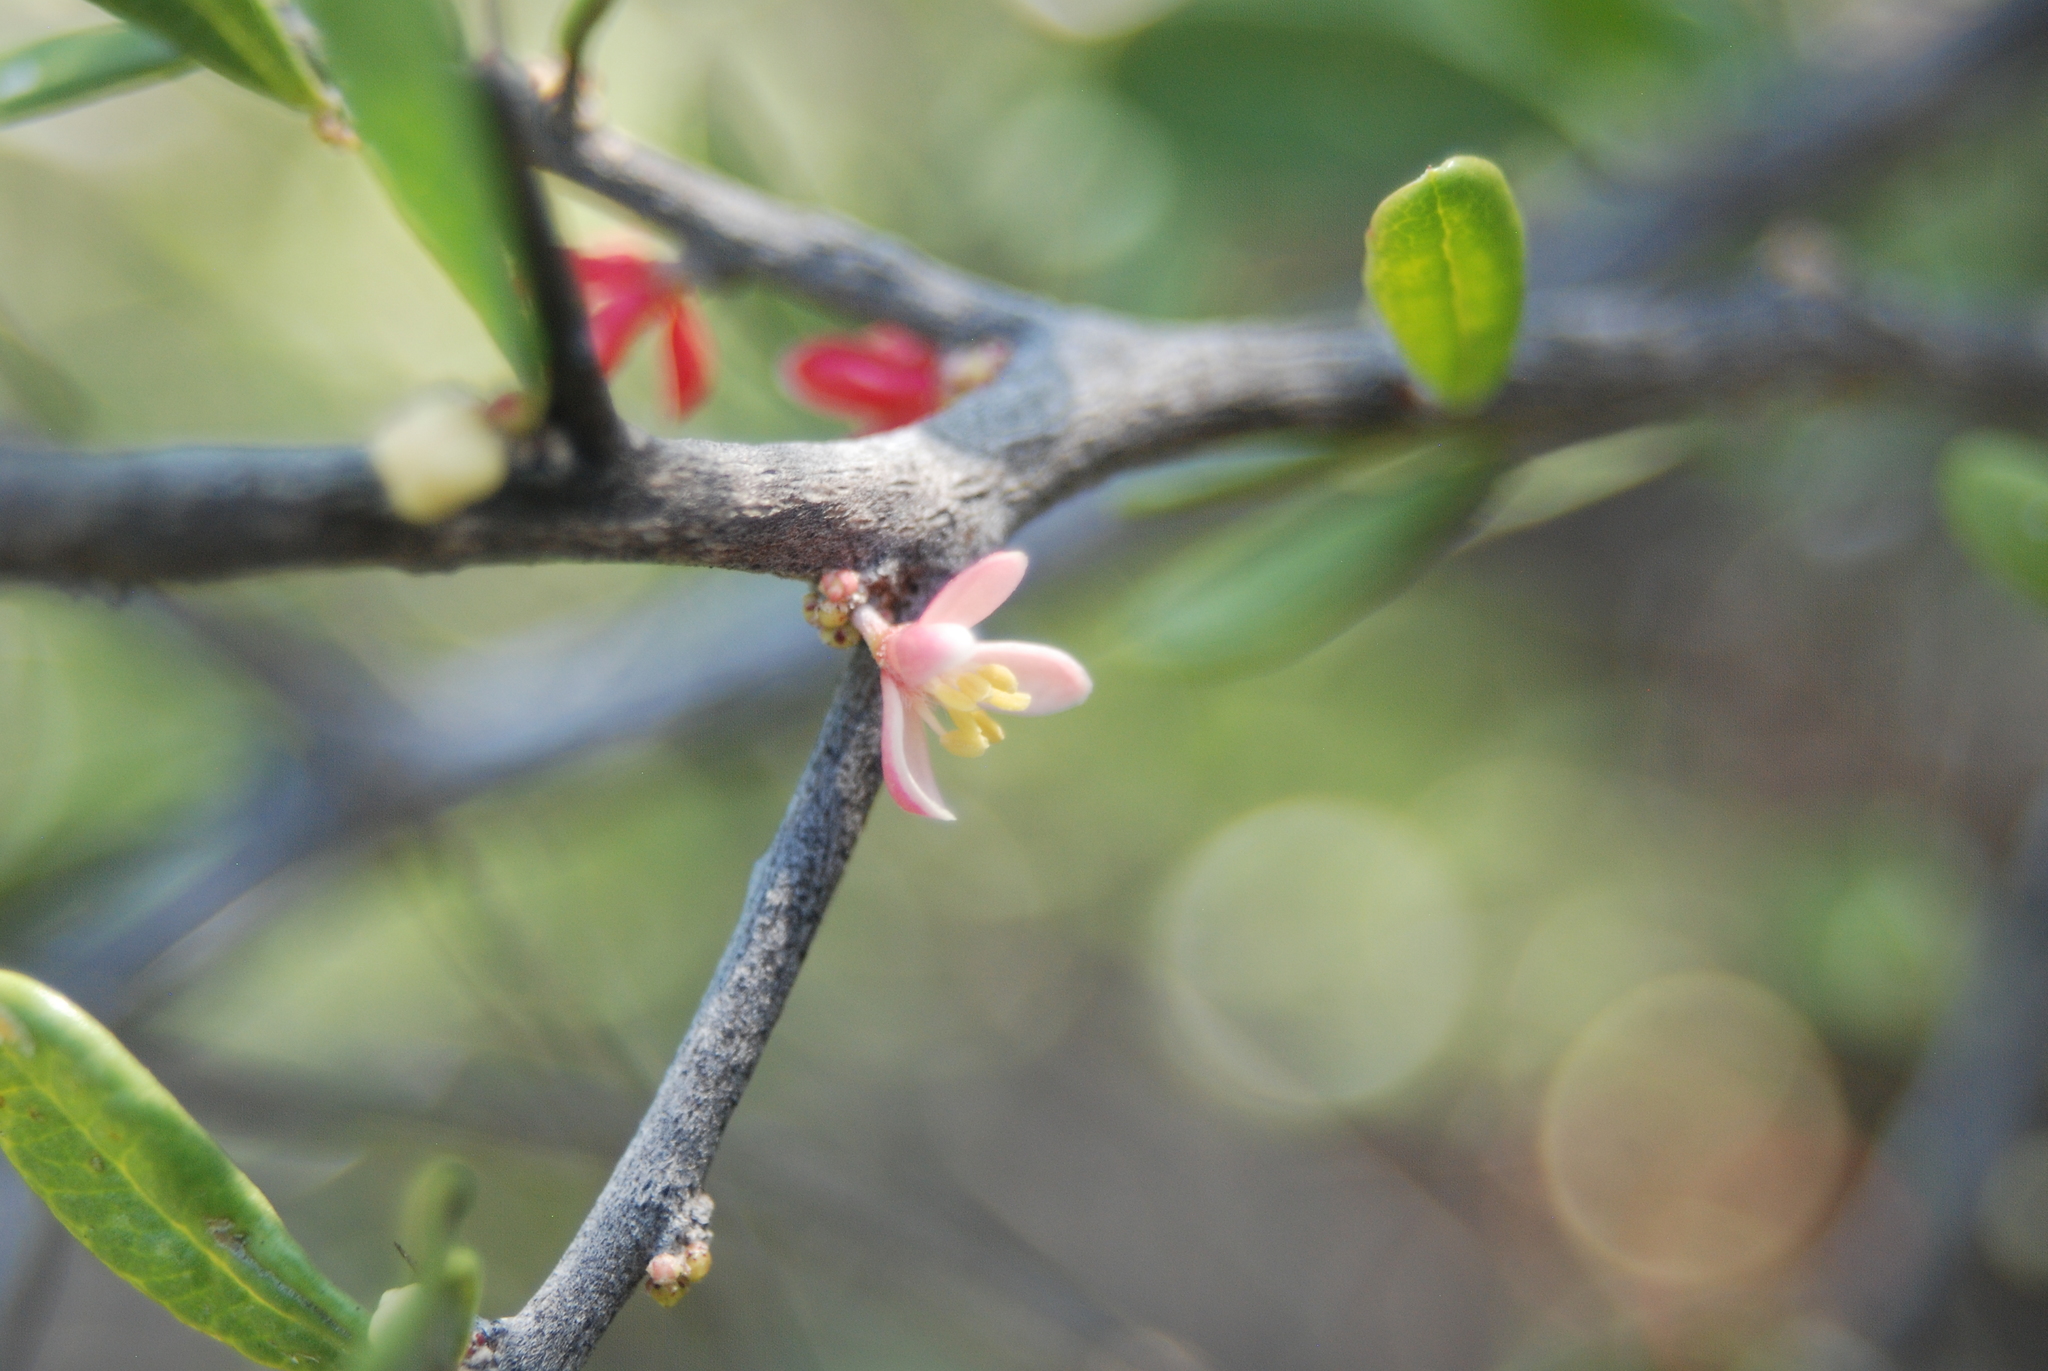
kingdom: Plantae
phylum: Tracheophyta
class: Magnoliopsida
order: Sapindales
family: Simaroubaceae
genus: Castela
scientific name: Castela galapageia
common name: Bitterbush
